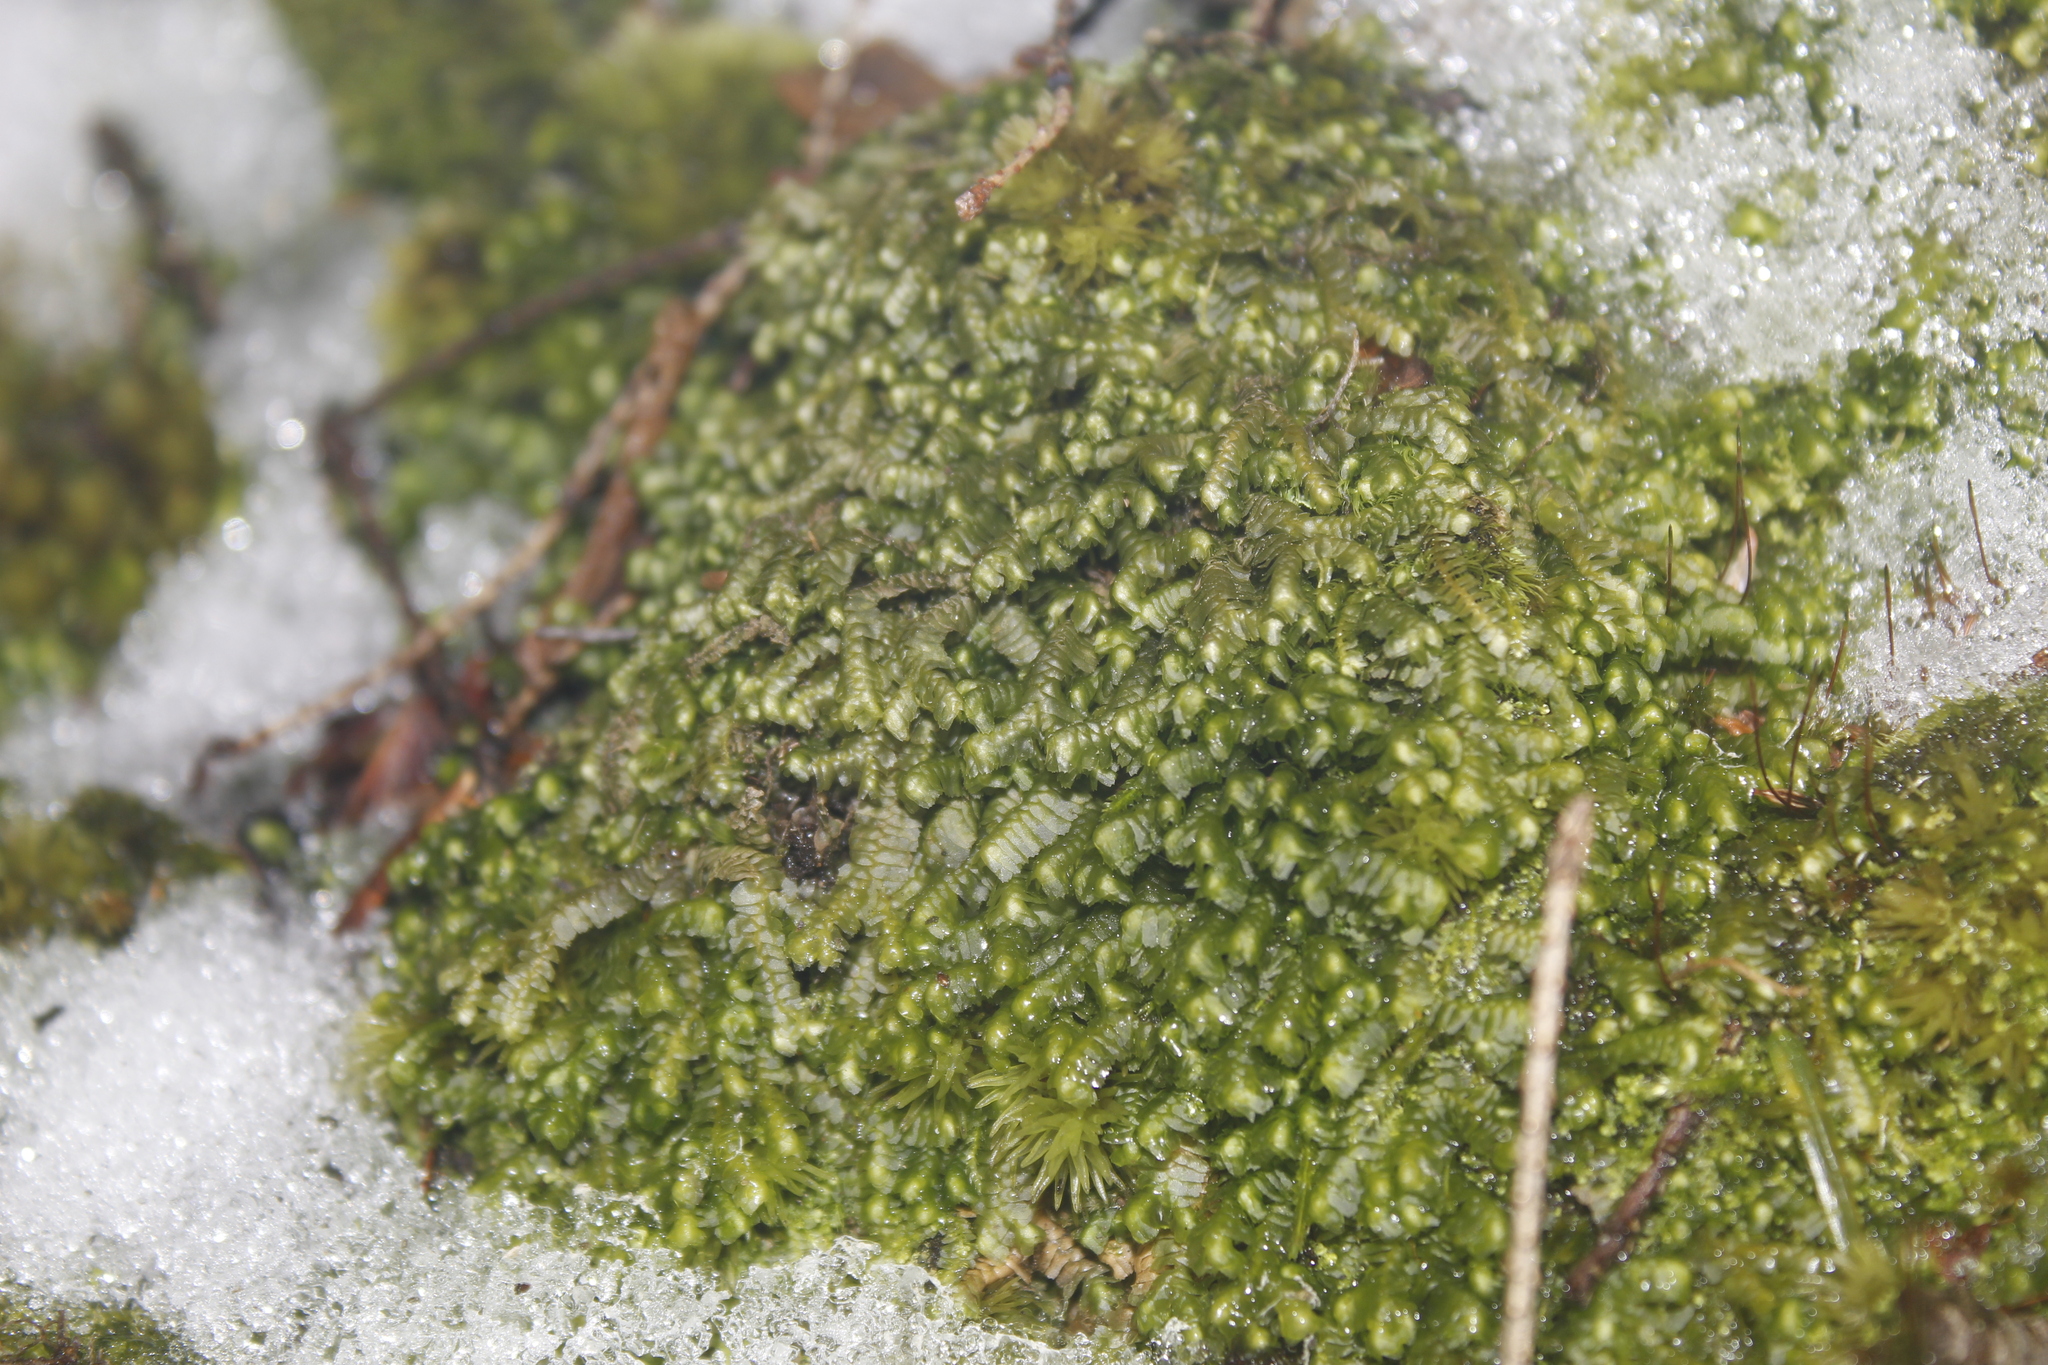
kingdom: Plantae
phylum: Marchantiophyta
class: Jungermanniopsida
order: Jungermanniales
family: Lepidoziaceae
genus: Bazzania
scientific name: Bazzania trilobata
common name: Three-lobed whipwort
